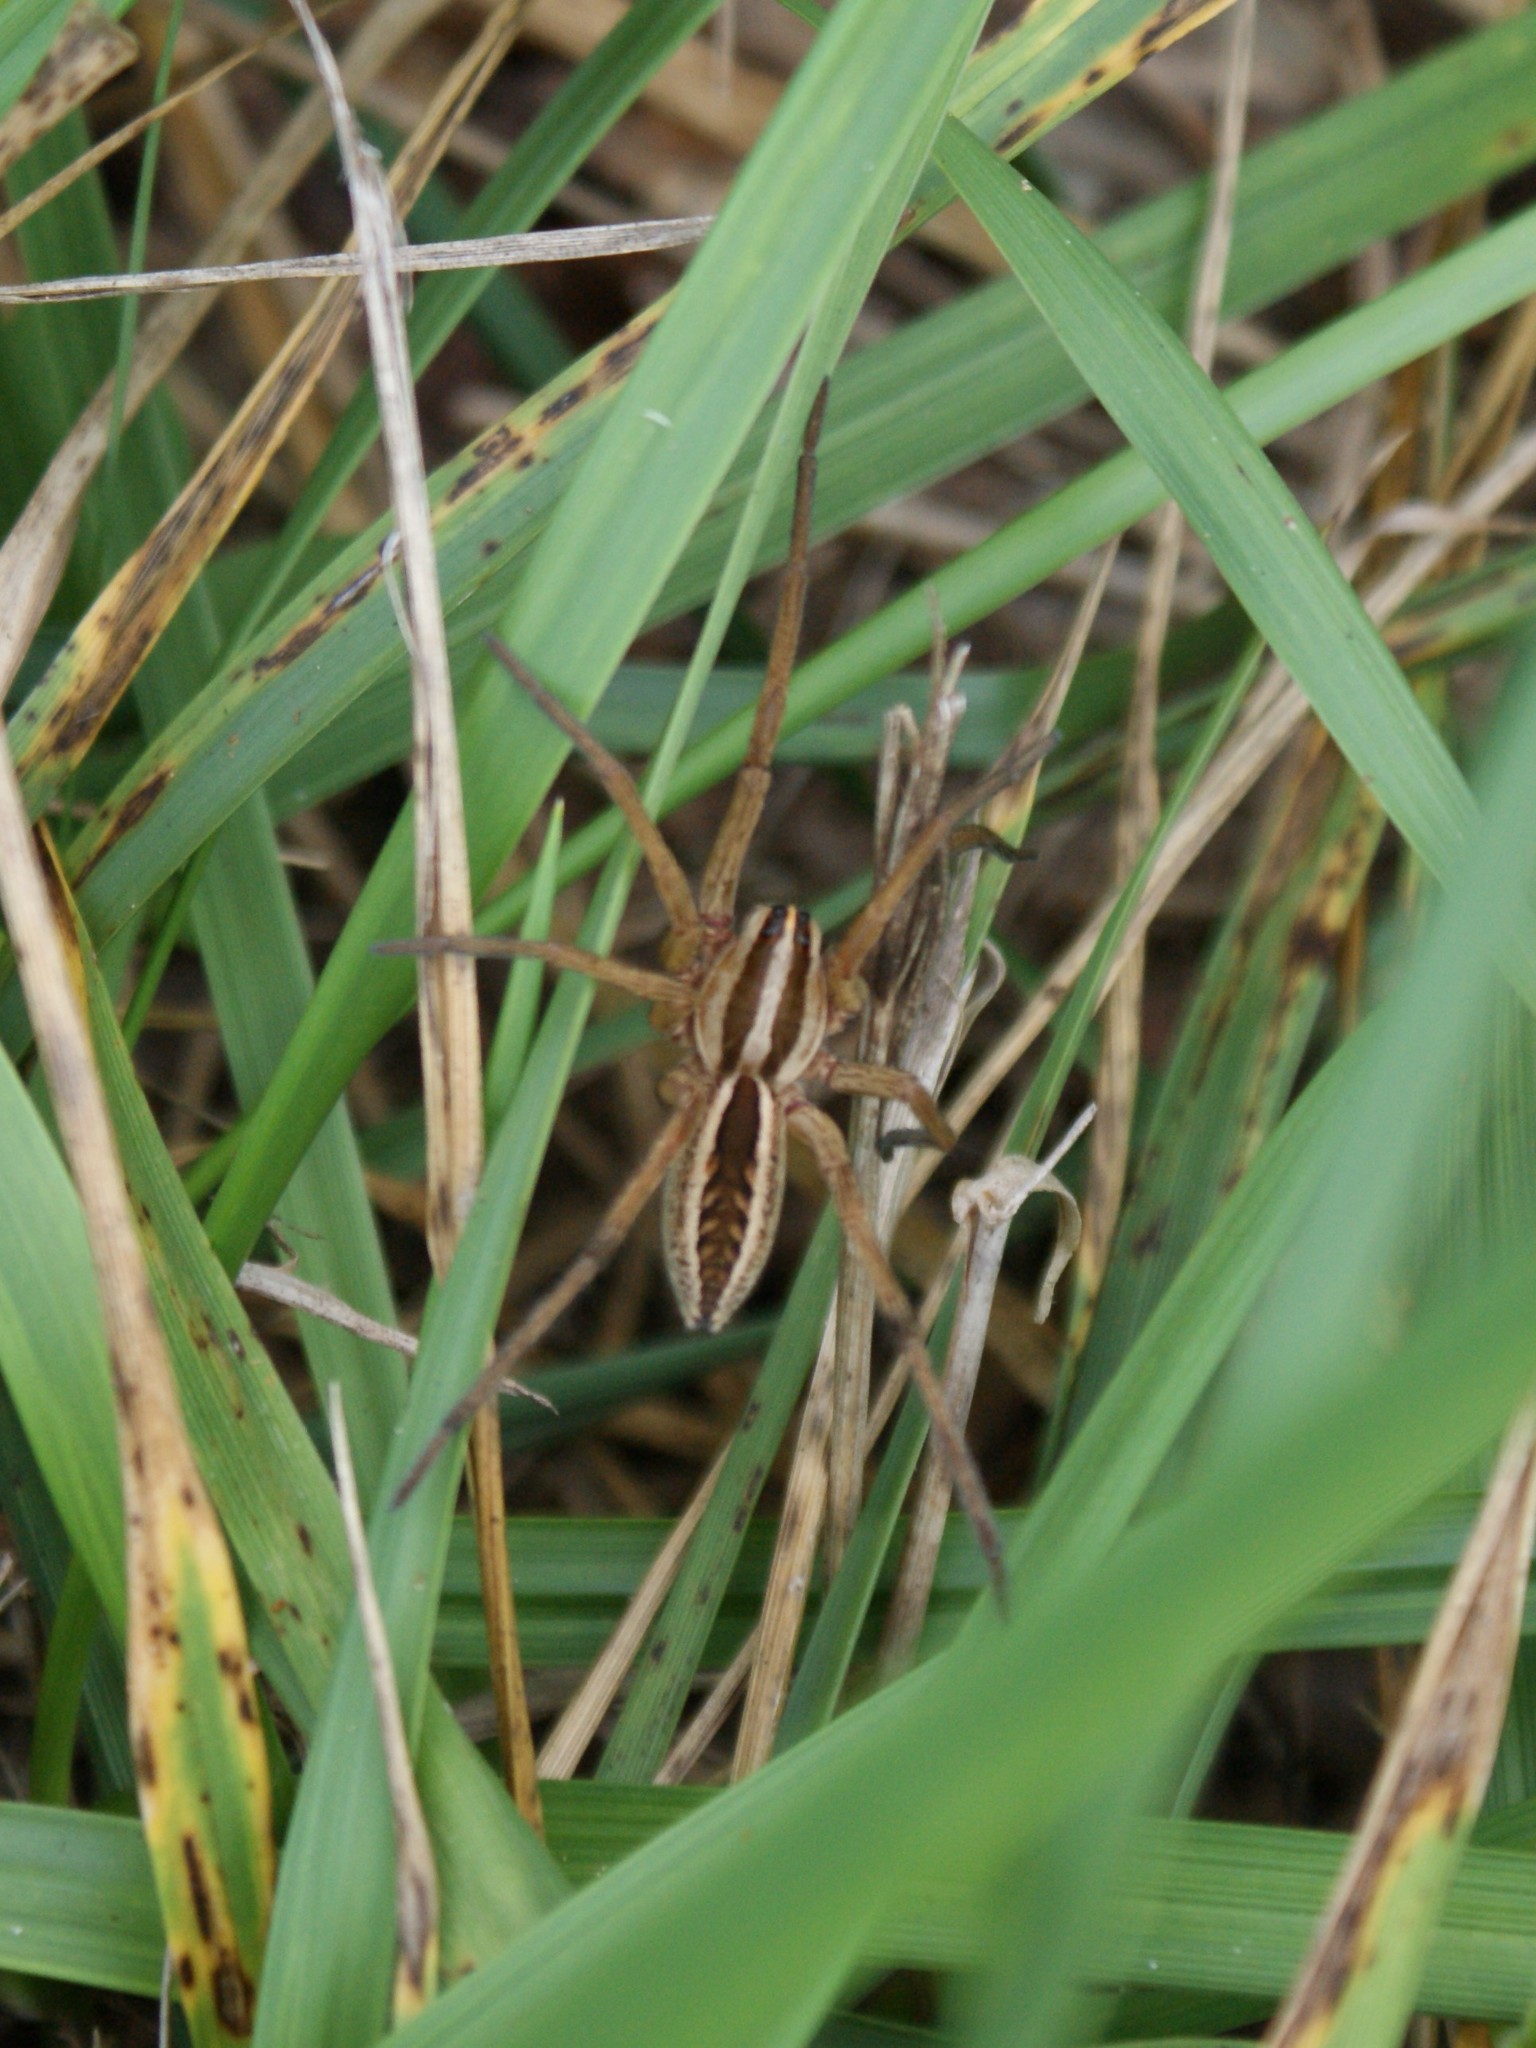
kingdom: Animalia
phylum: Arthropoda
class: Arachnida
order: Araneae
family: Lycosidae
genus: Rabidosa
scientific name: Rabidosa rabida
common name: Rabid wolf spider
